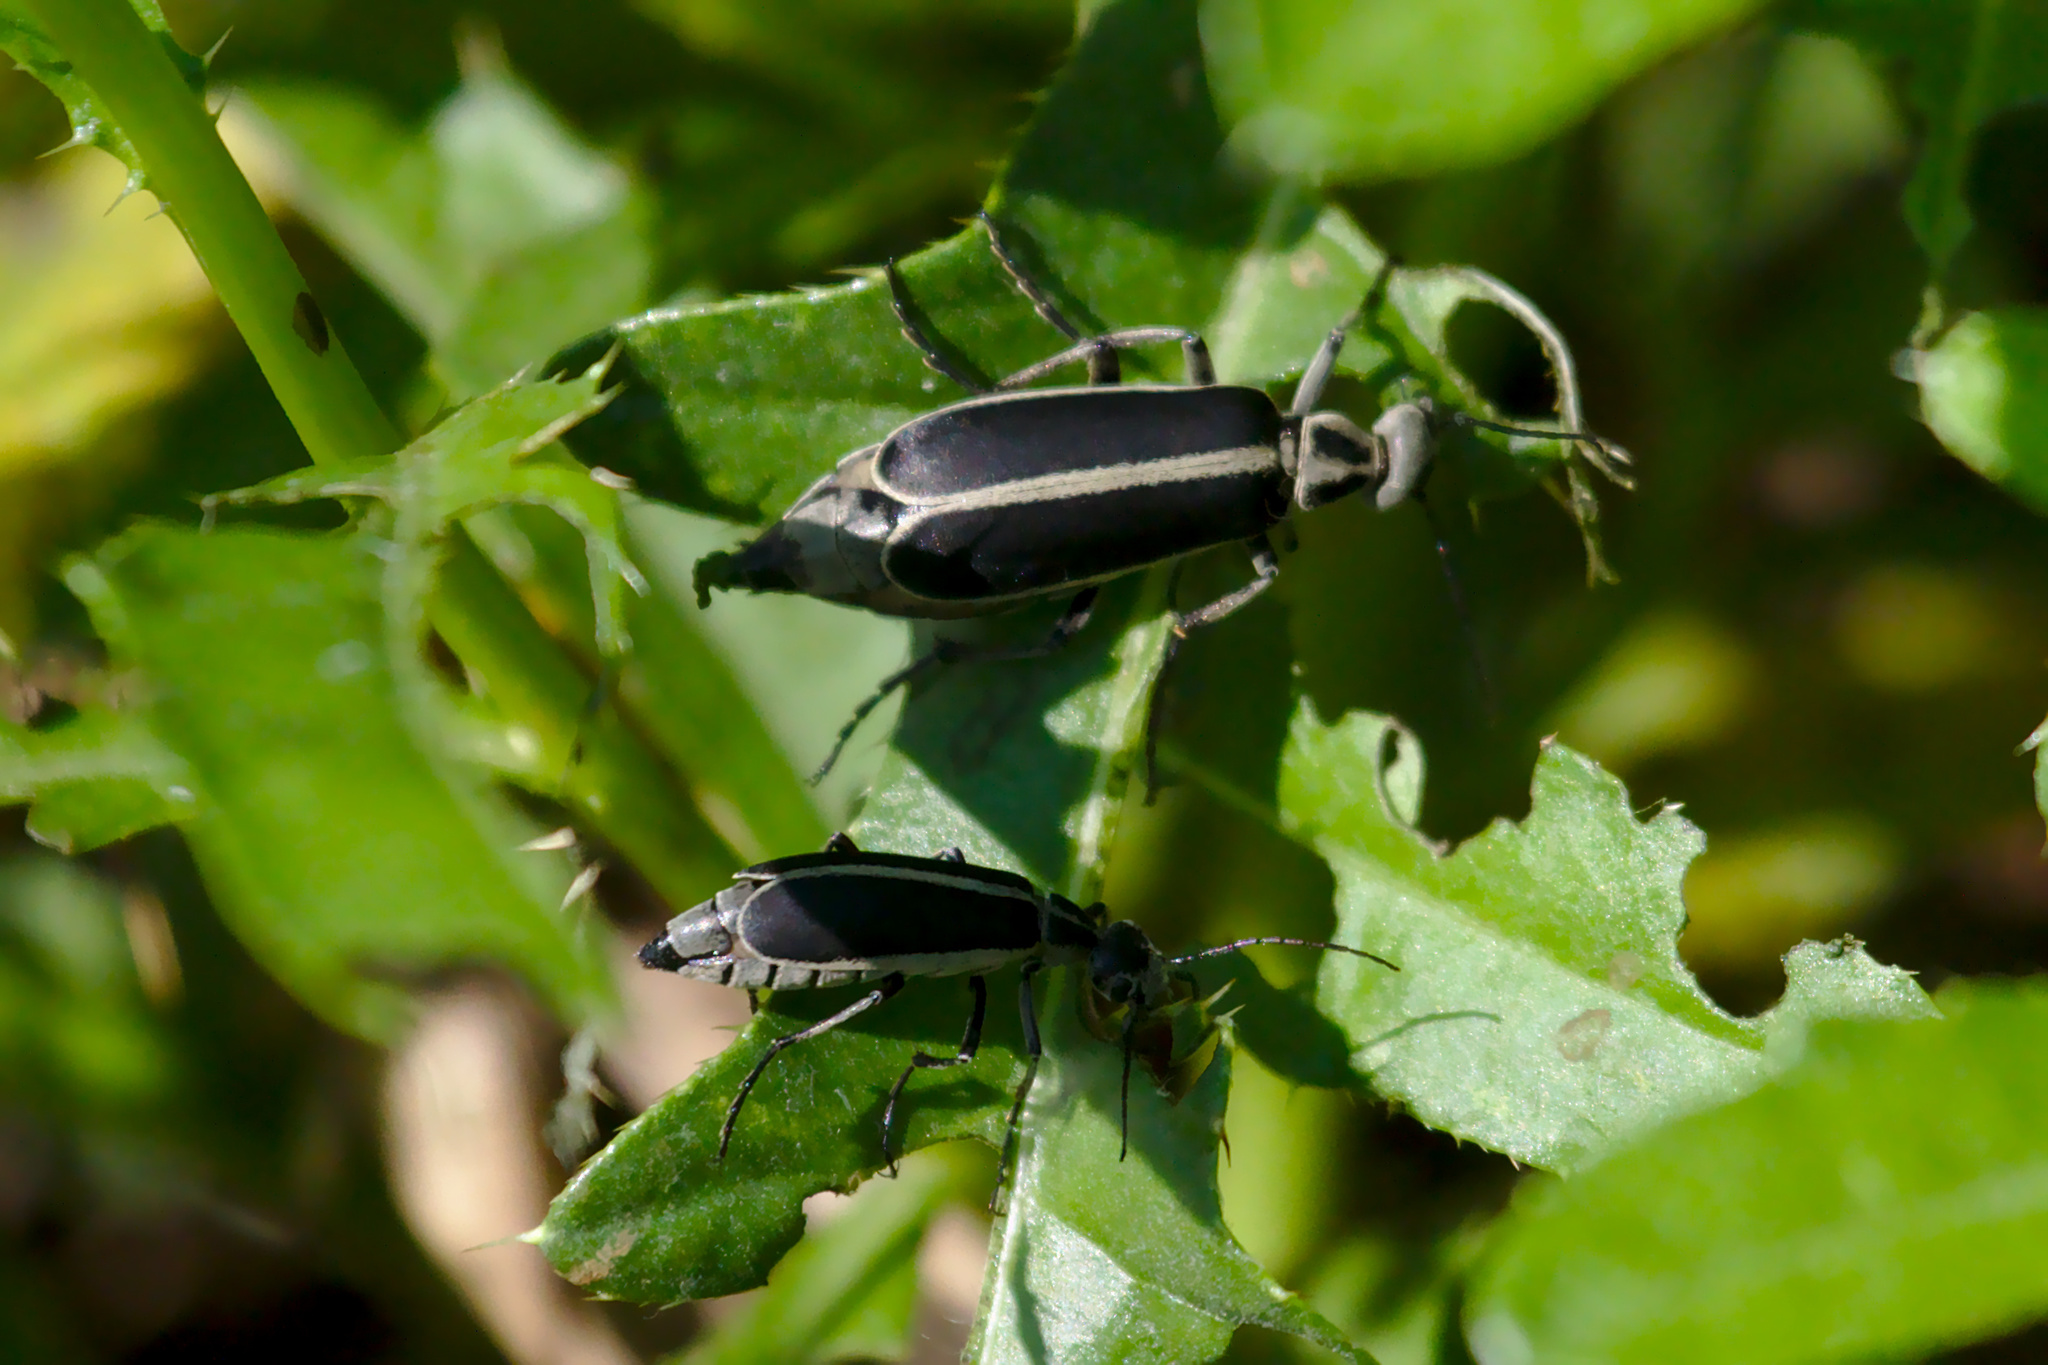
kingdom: Animalia
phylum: Arthropoda
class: Insecta
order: Coleoptera
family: Meloidae
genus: Epicauta
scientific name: Epicauta funebris
